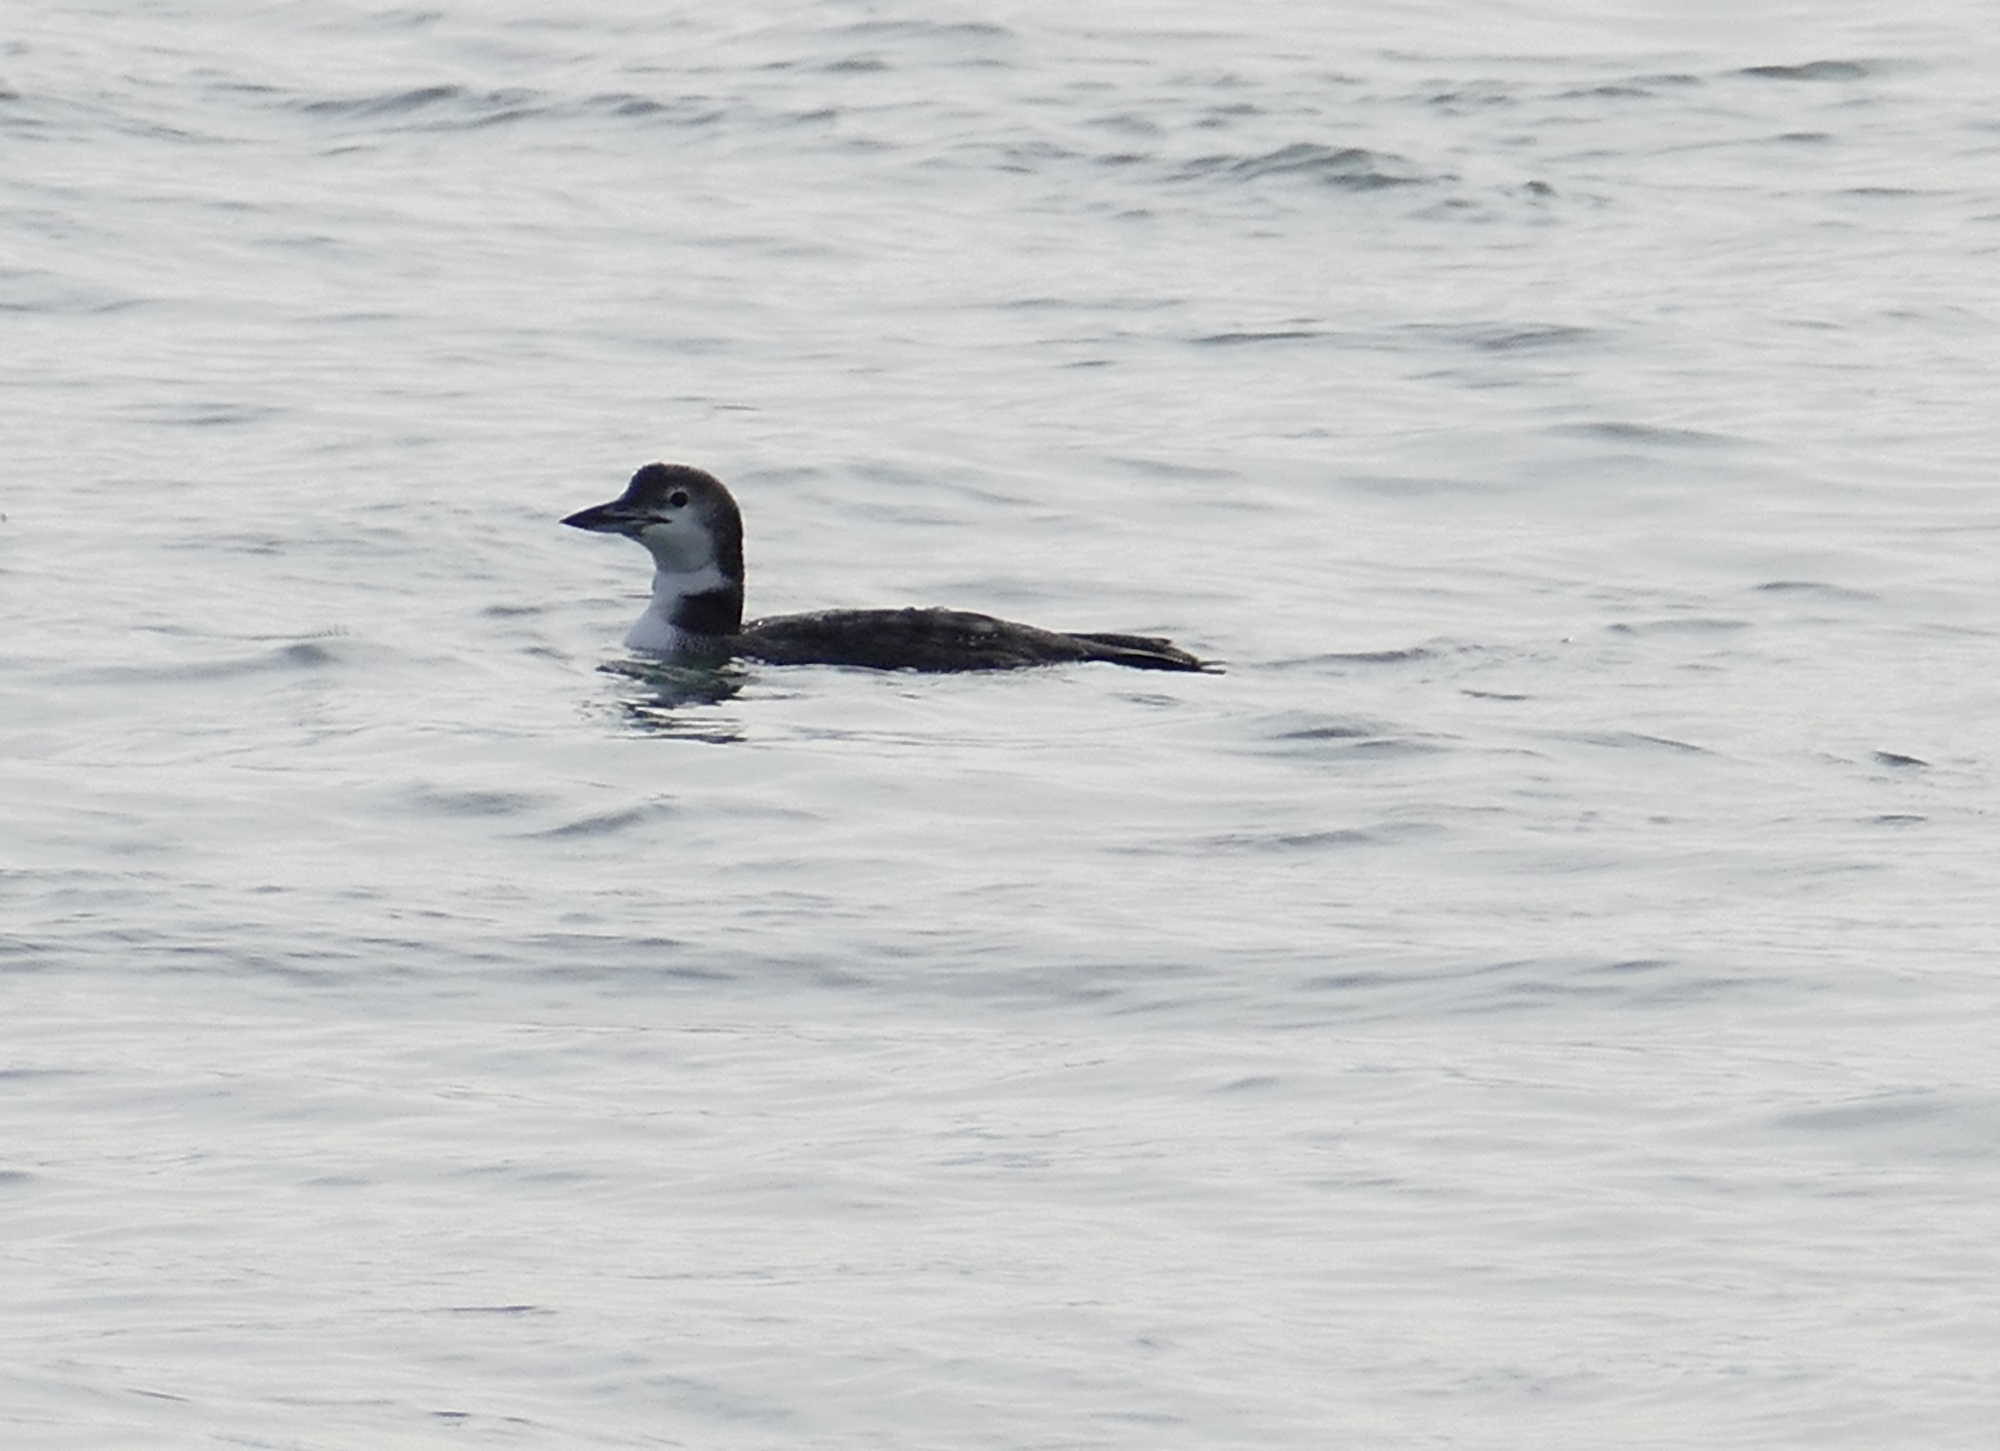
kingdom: Animalia
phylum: Chordata
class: Aves
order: Gaviiformes
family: Gaviidae
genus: Gavia
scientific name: Gavia immer
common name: Common loon
